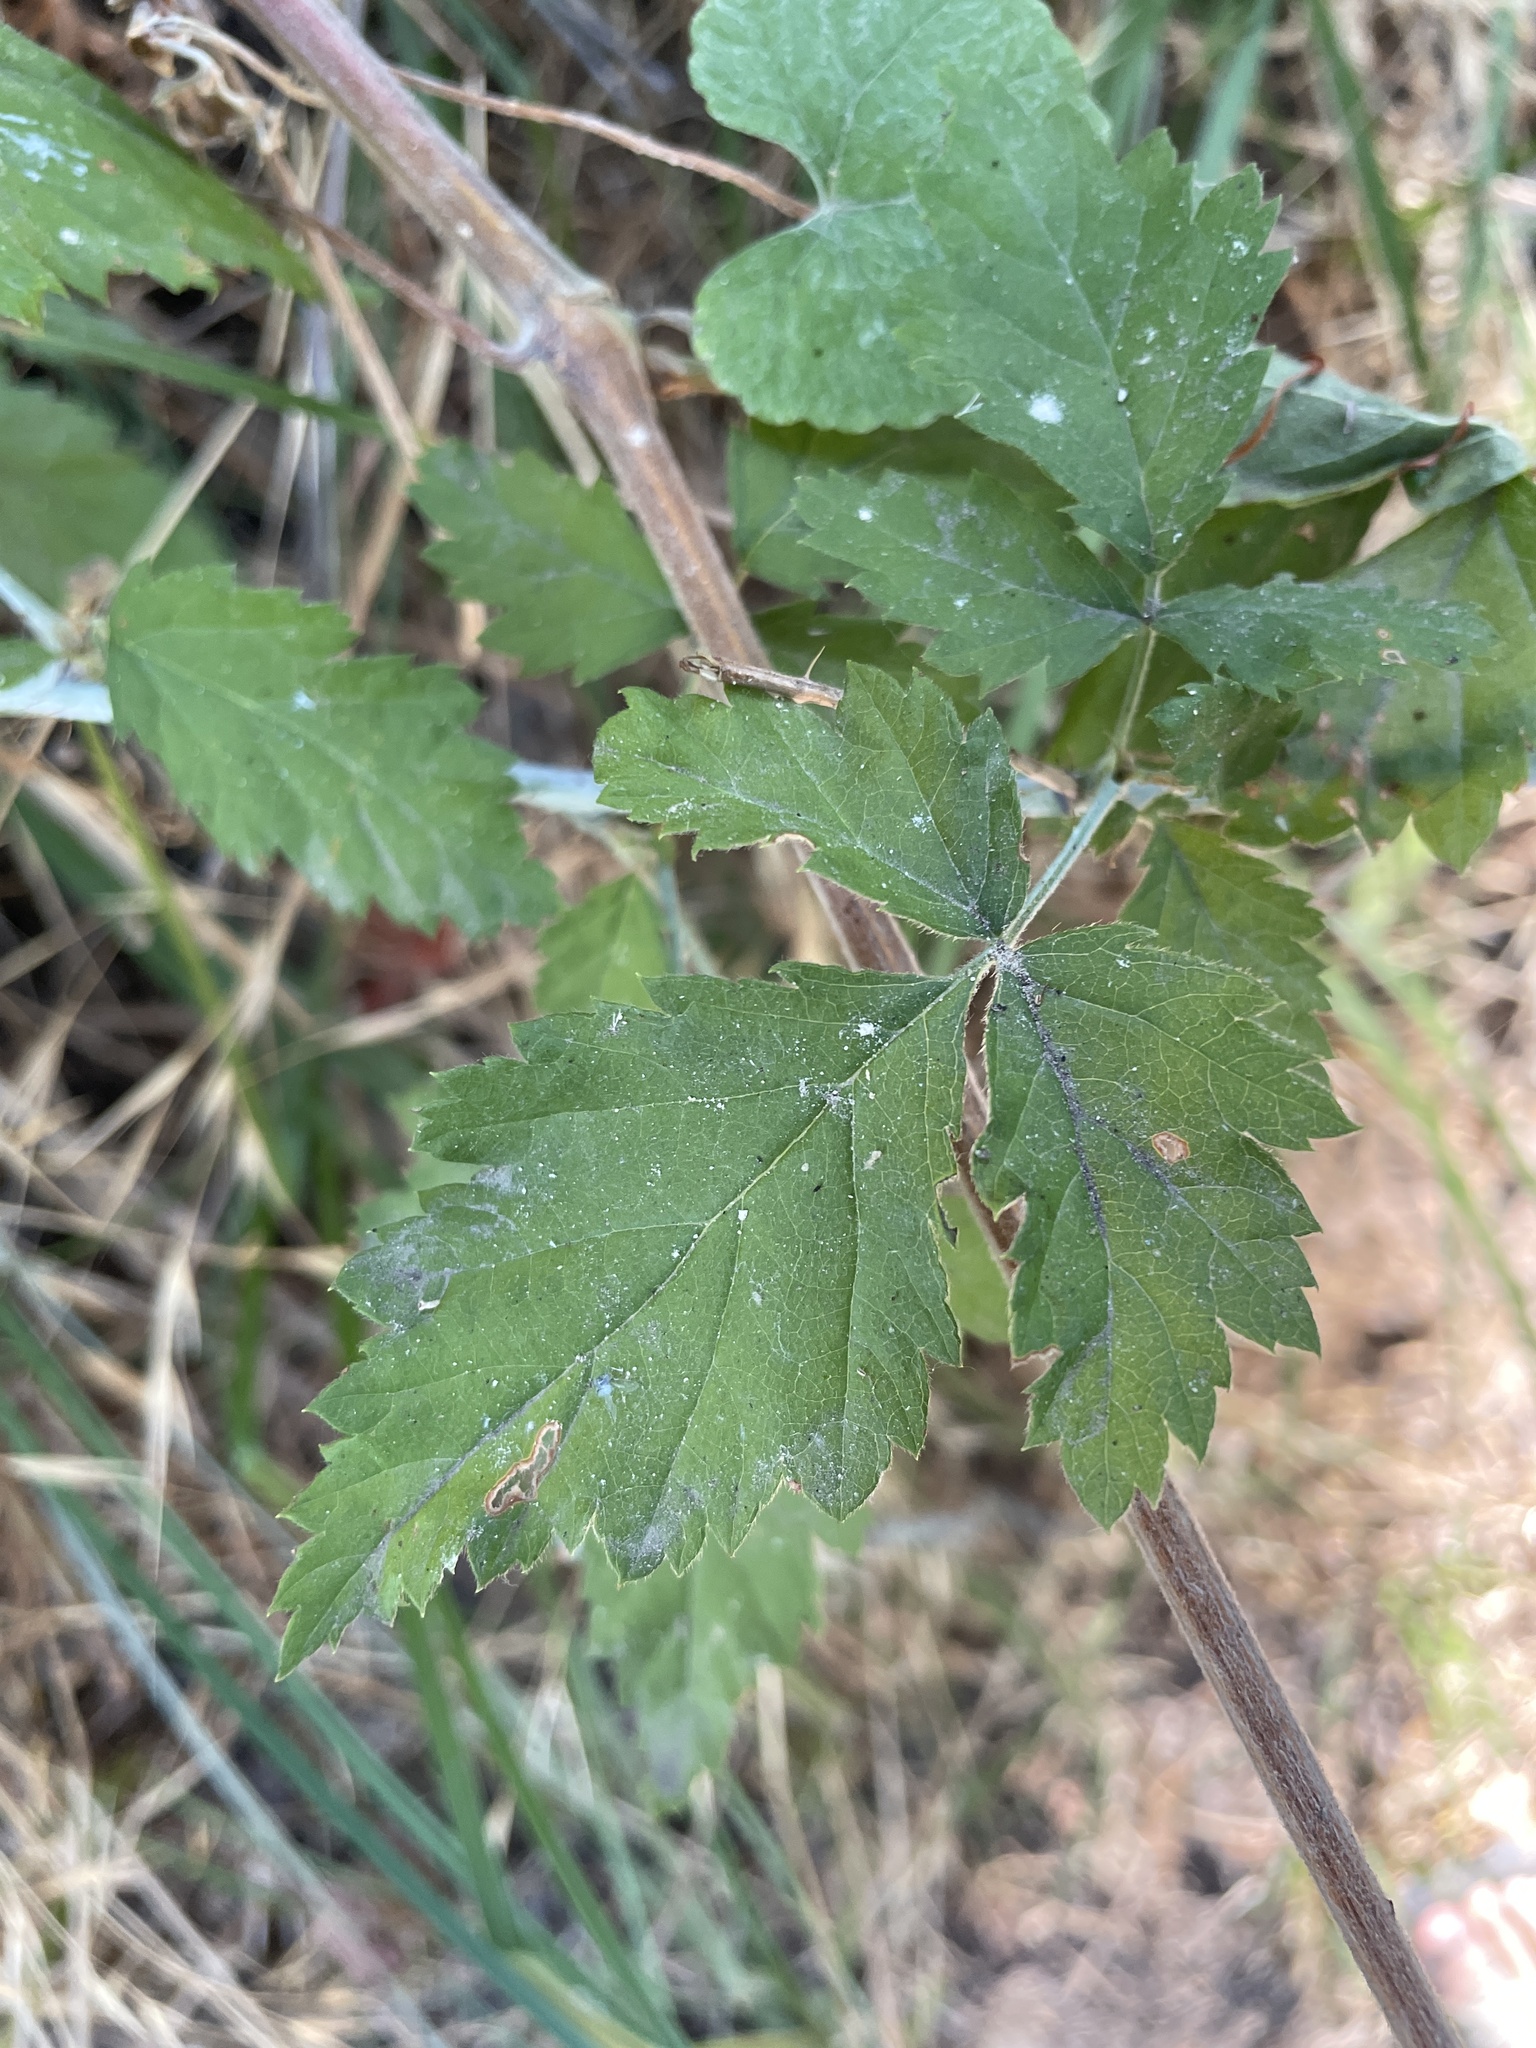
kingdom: Plantae
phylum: Tracheophyta
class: Magnoliopsida
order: Rosales
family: Rosaceae
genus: Rubus
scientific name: Rubus ursinus
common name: Pacific blackberry
